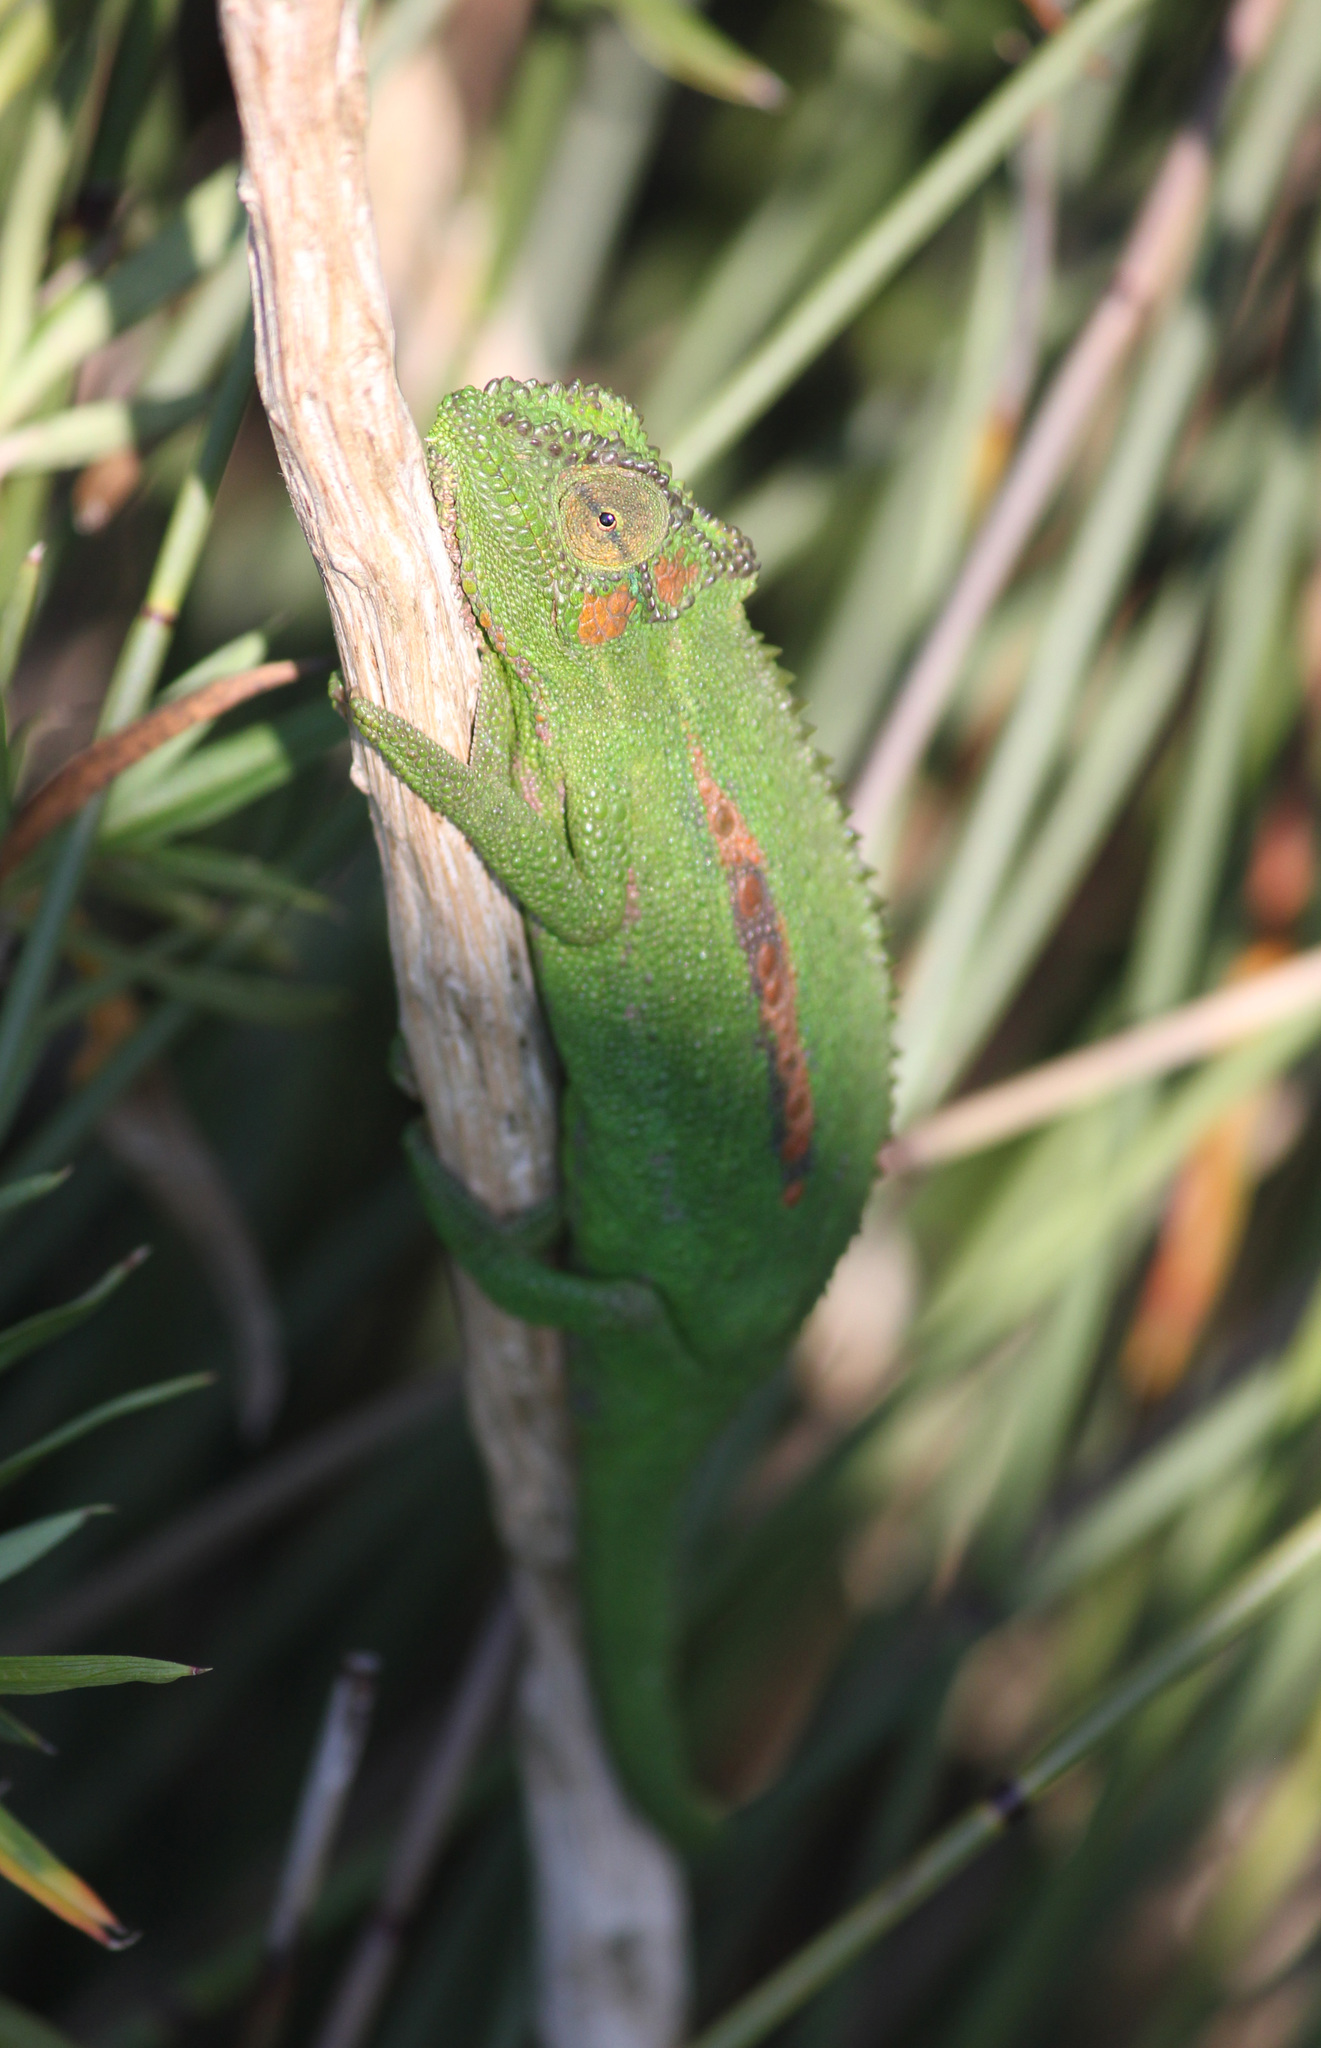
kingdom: Animalia
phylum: Chordata
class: Squamata
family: Chamaeleonidae
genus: Bradypodion
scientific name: Bradypodion pumilum
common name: Cape dwarf chameleon
